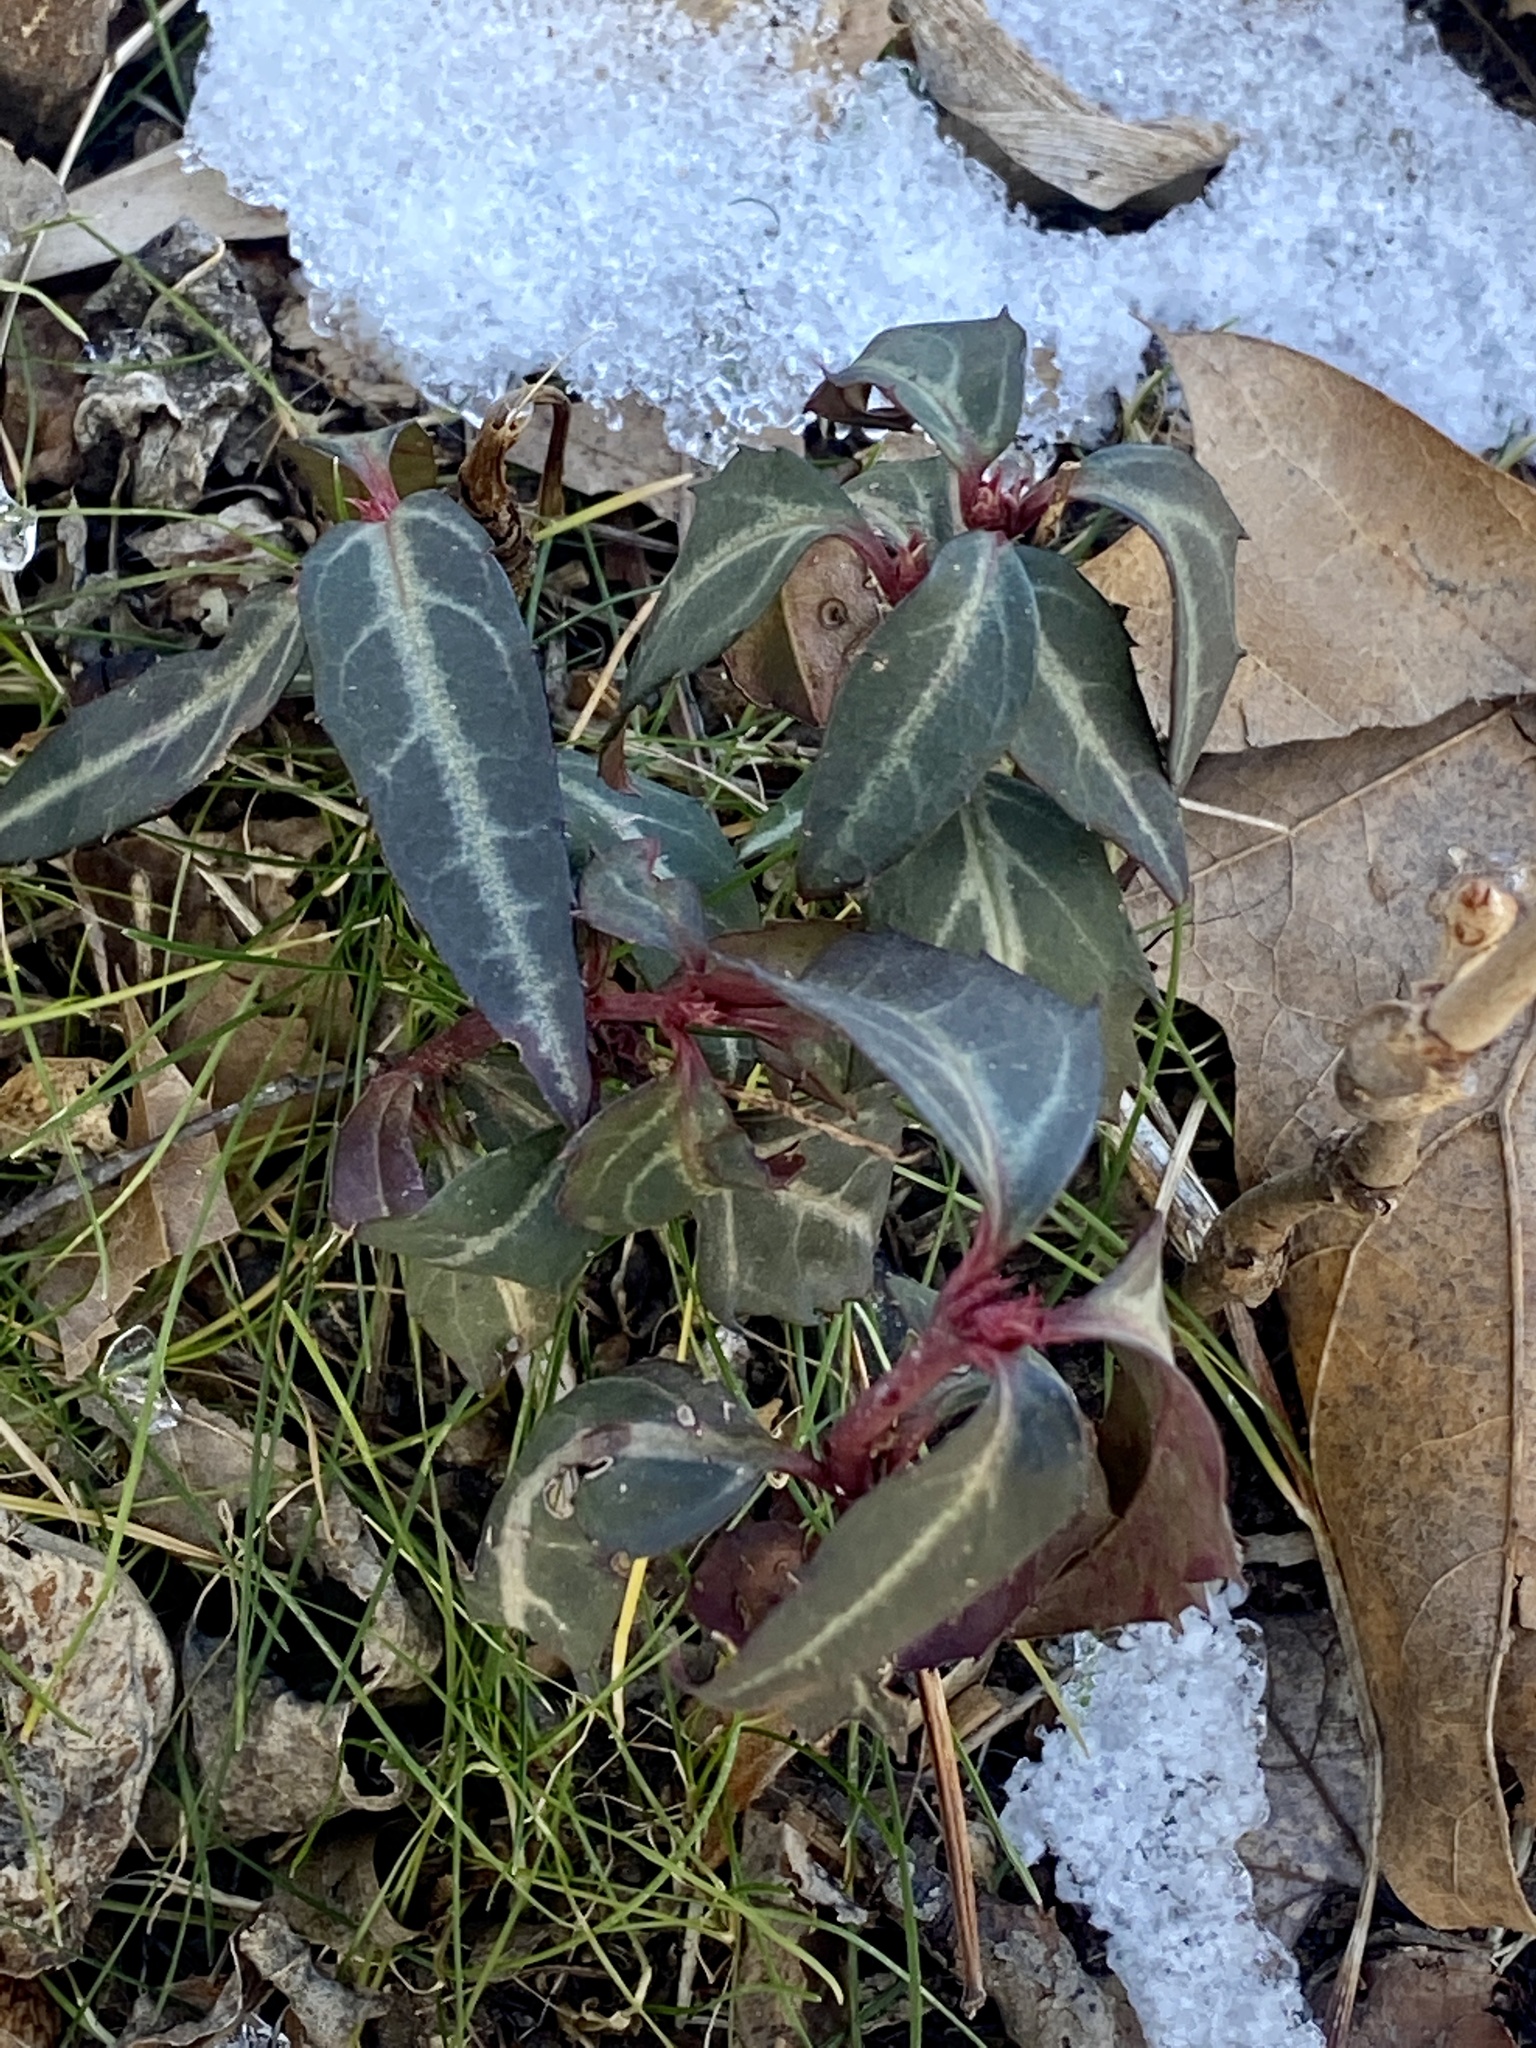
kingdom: Plantae
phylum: Tracheophyta
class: Magnoliopsida
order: Ericales
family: Ericaceae
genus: Chimaphila
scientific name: Chimaphila maculata
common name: Spotted pipsissewa
